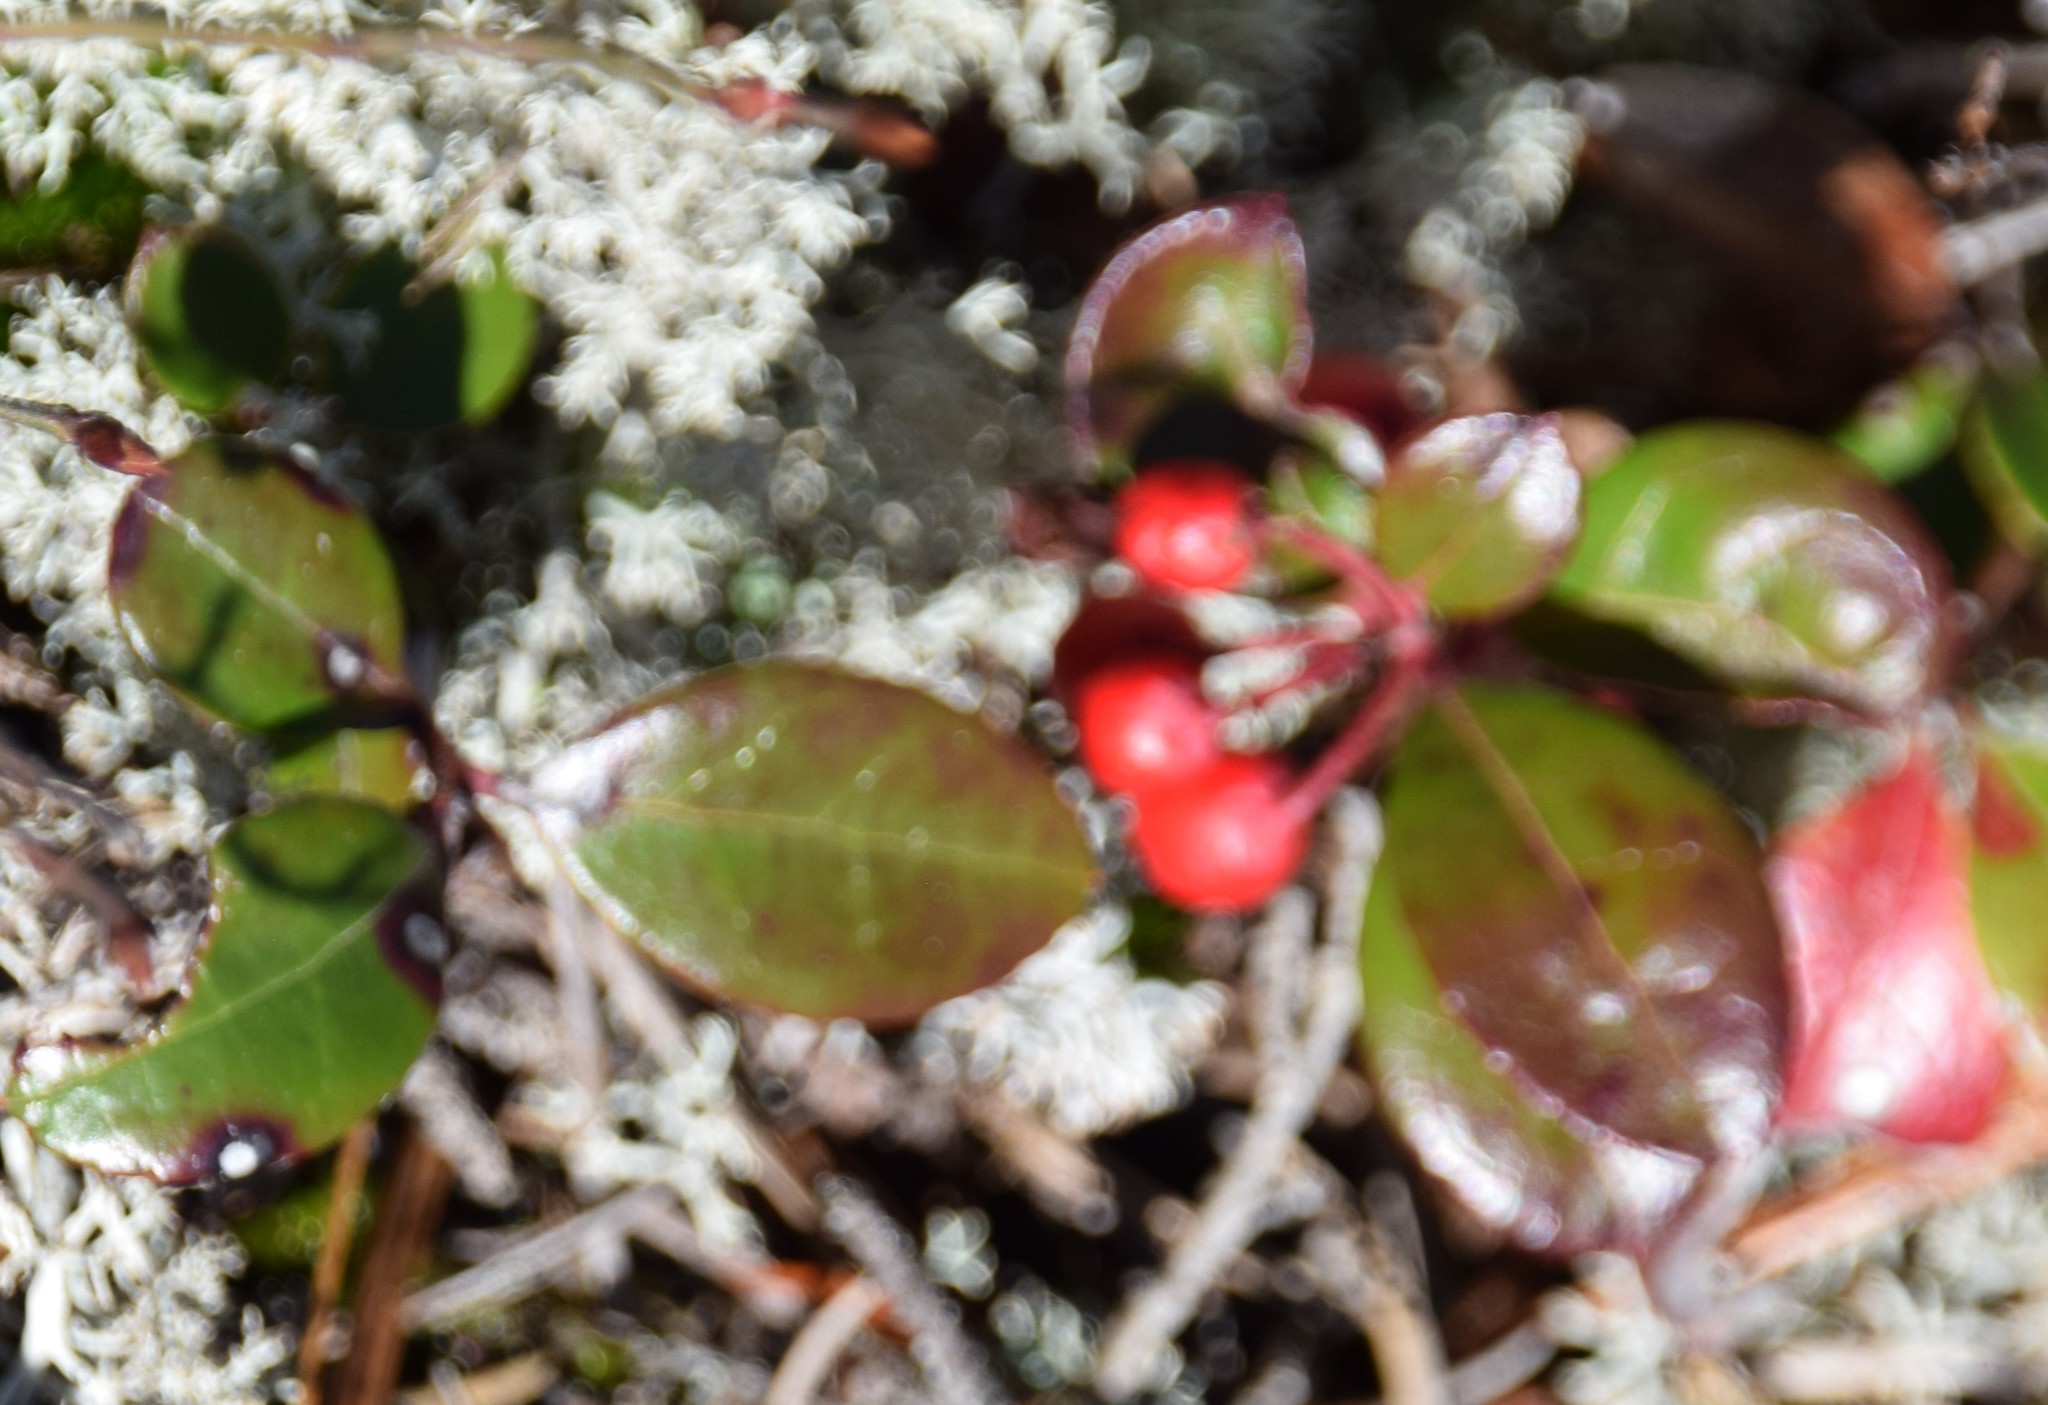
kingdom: Plantae
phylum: Tracheophyta
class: Magnoliopsida
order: Ericales
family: Ericaceae
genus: Gaultheria
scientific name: Gaultheria procumbens
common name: Checkerberry
